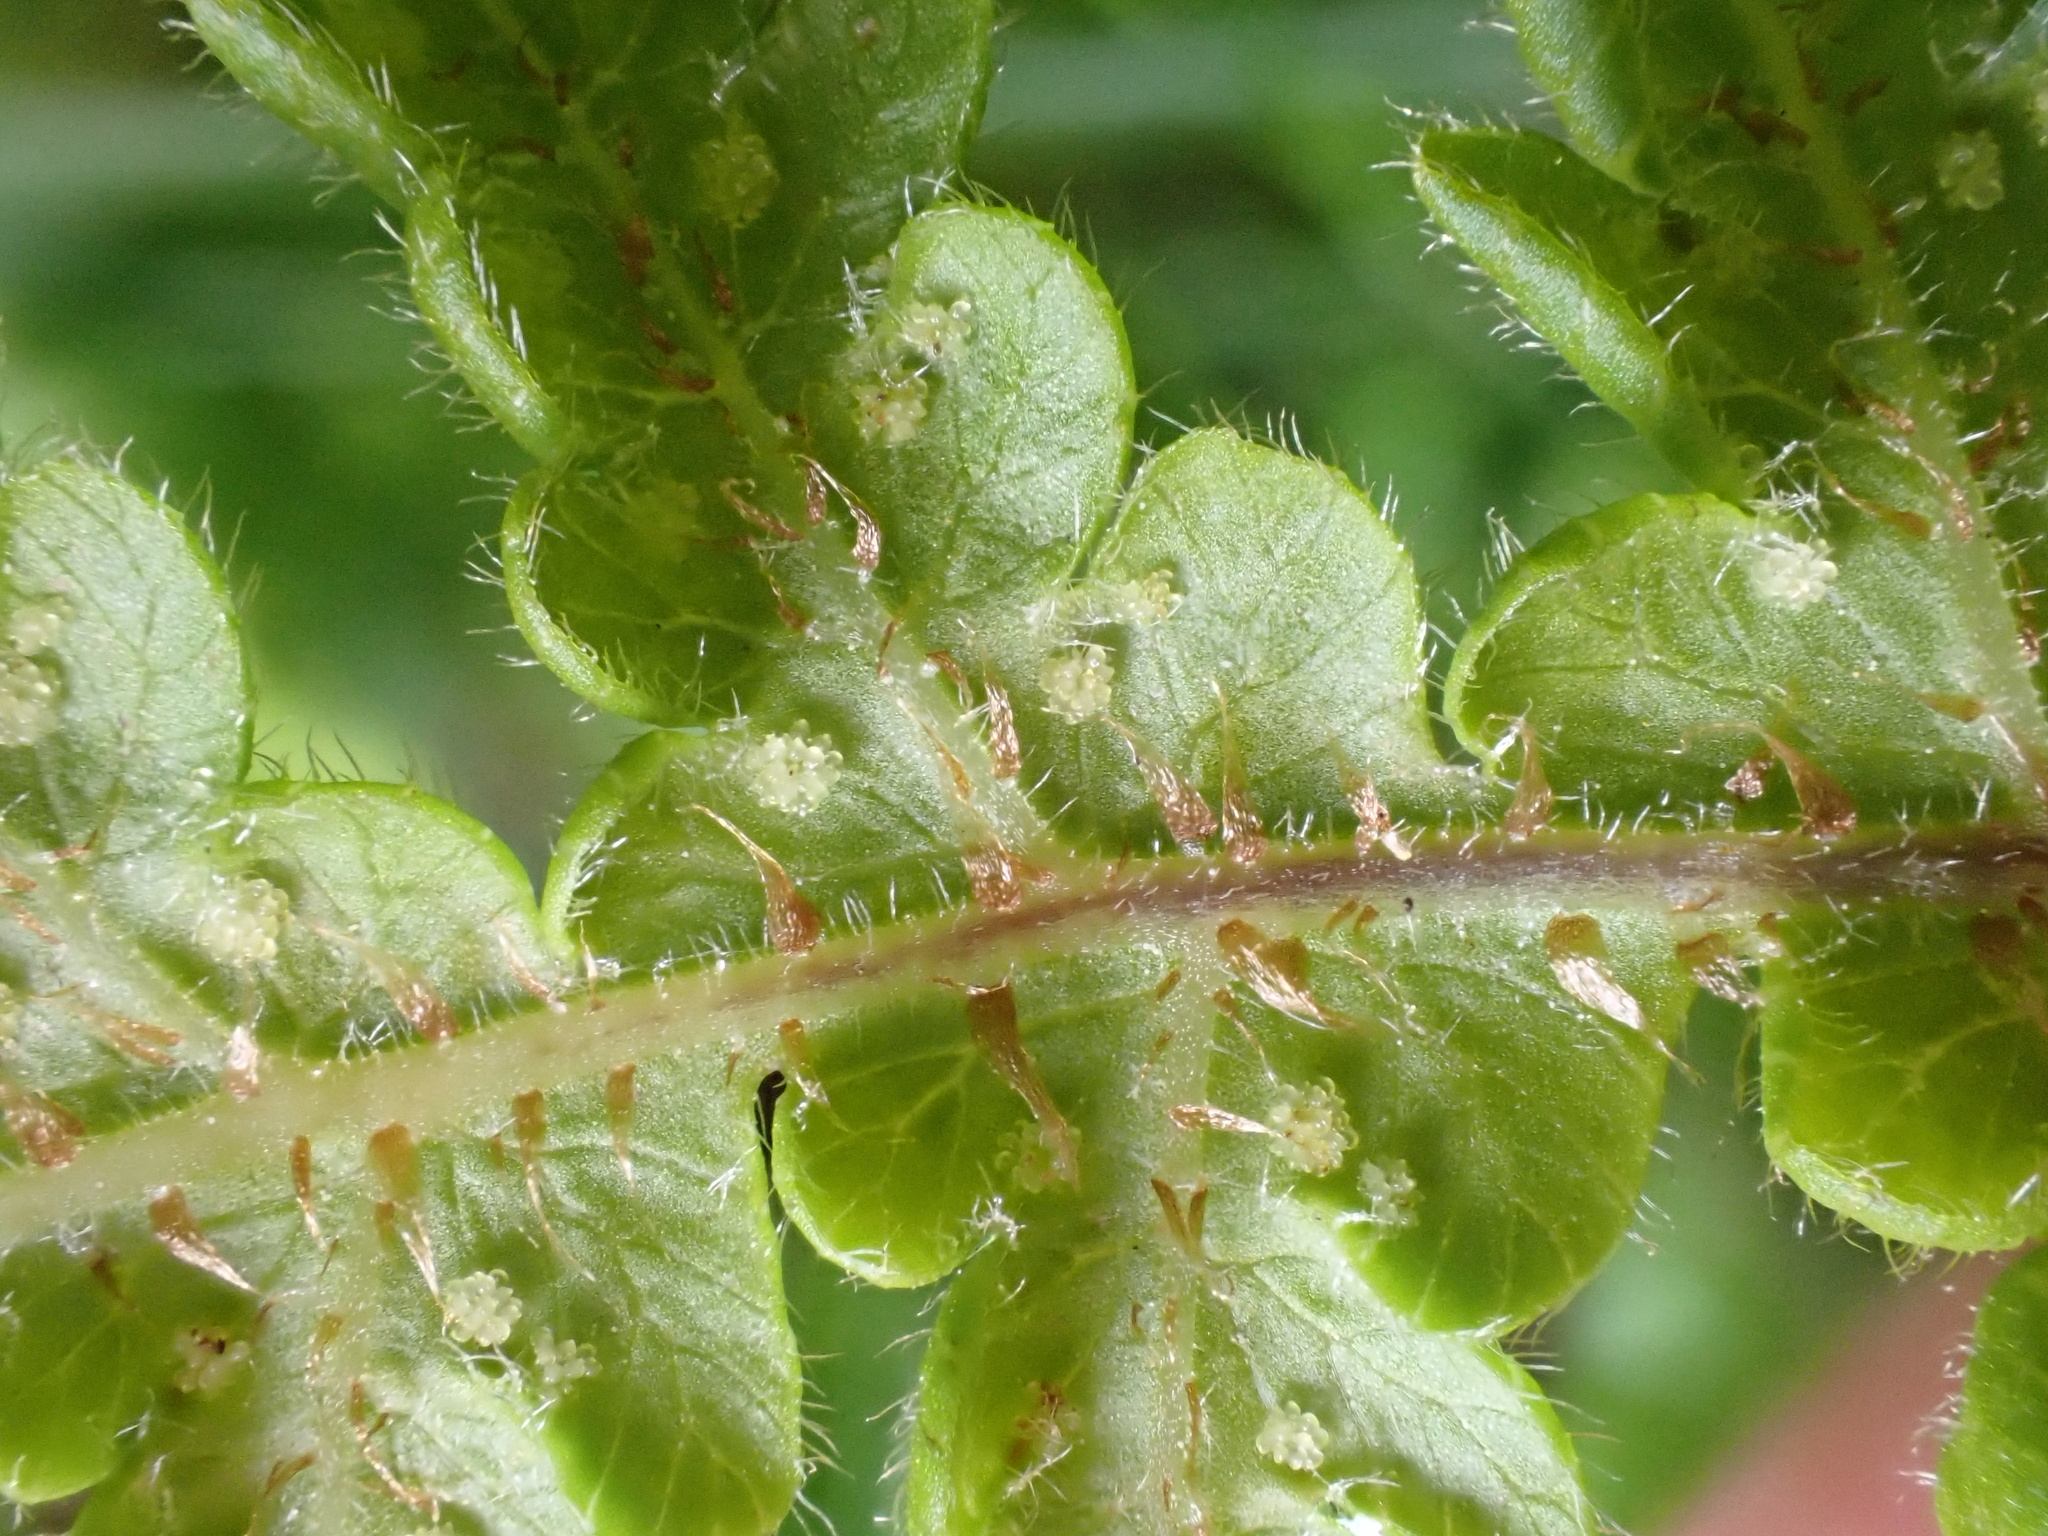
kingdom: Plantae
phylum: Tracheophyta
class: Polypodiopsida
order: Polypodiales
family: Thelypteridaceae
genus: Phegopteris
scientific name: Phegopteris connectilis
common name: Beech fern
